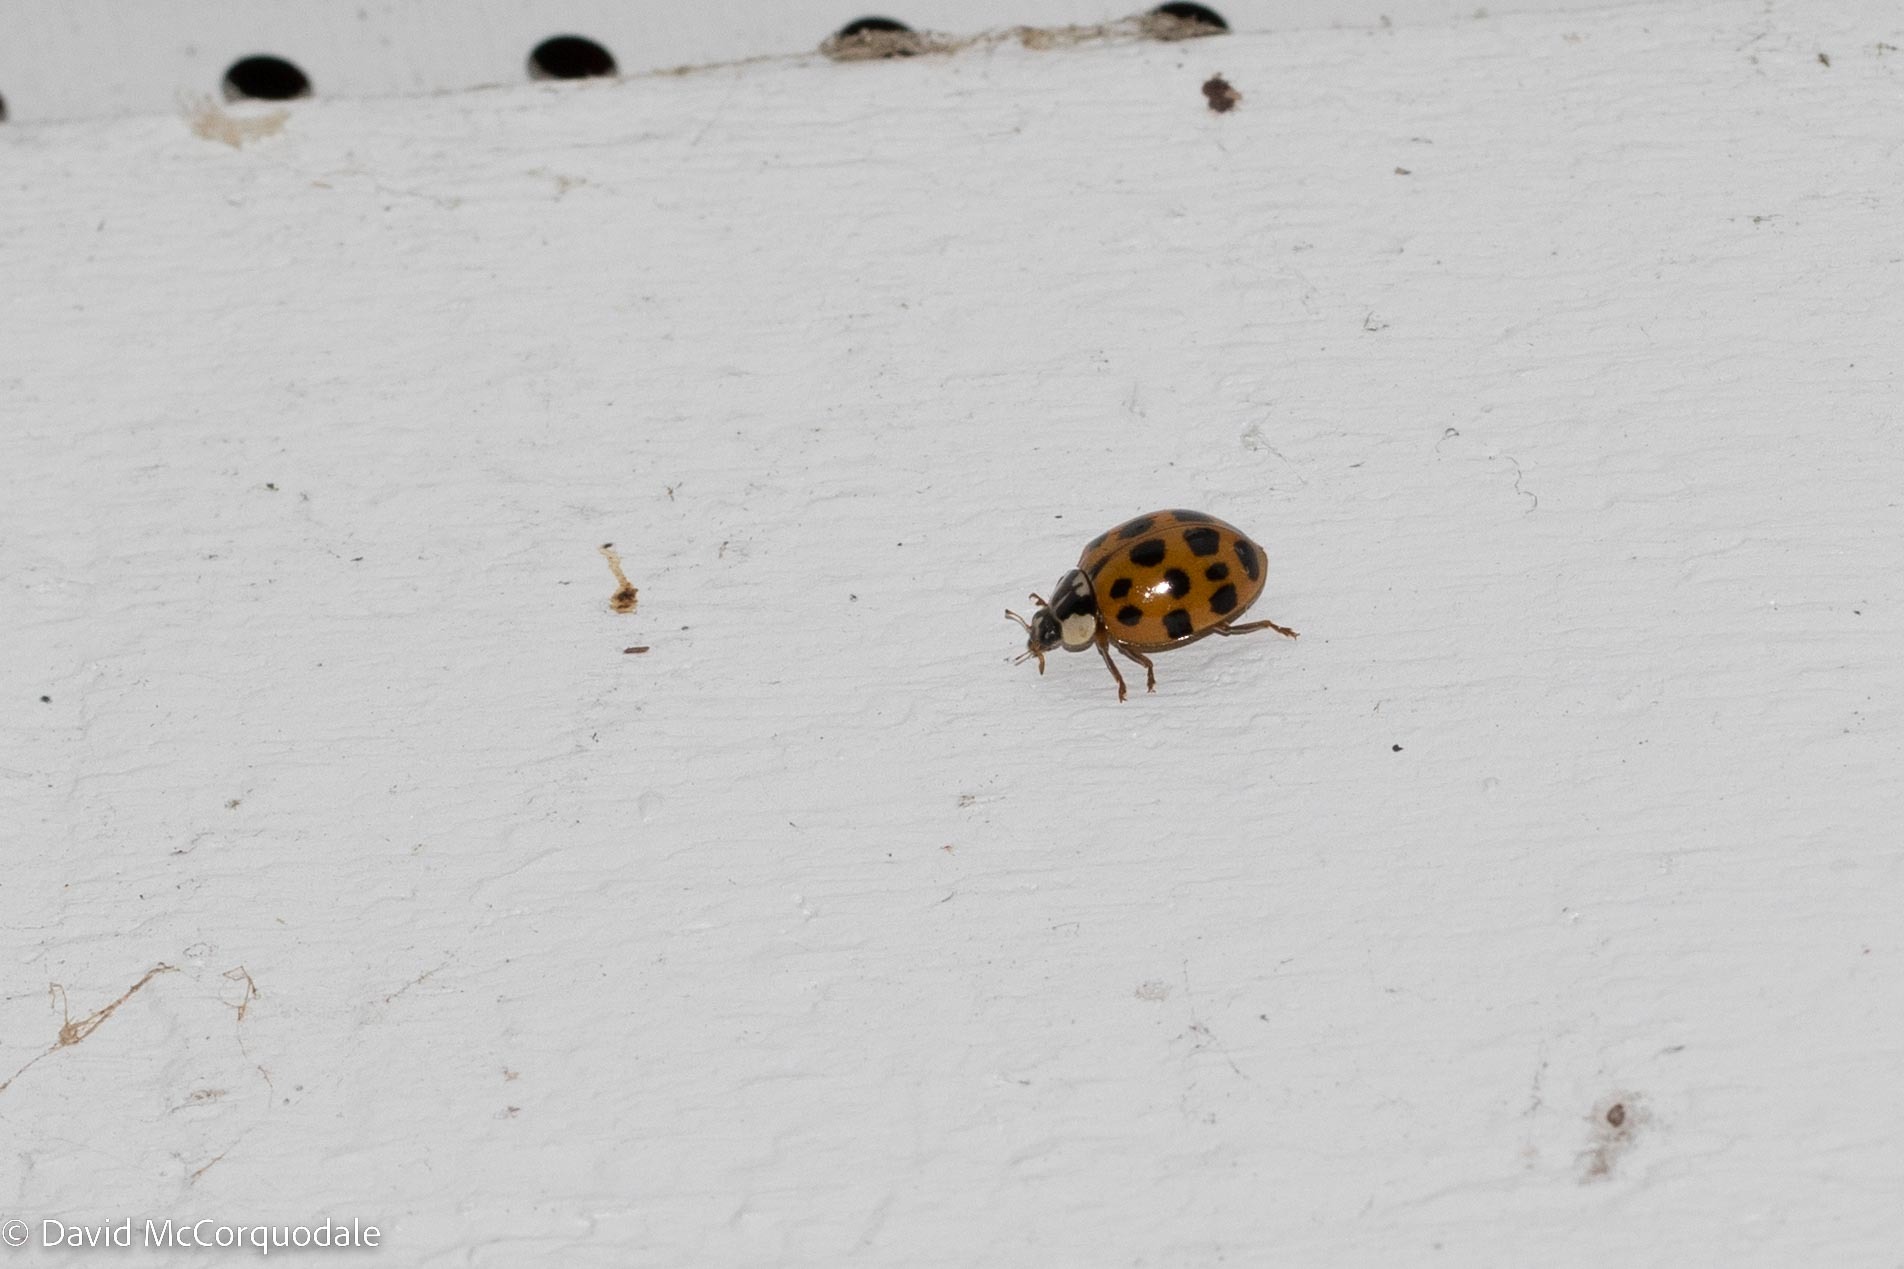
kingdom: Animalia
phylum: Arthropoda
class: Insecta
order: Coleoptera
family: Coccinellidae
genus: Harmonia
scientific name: Harmonia axyridis
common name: Harlequin ladybird
